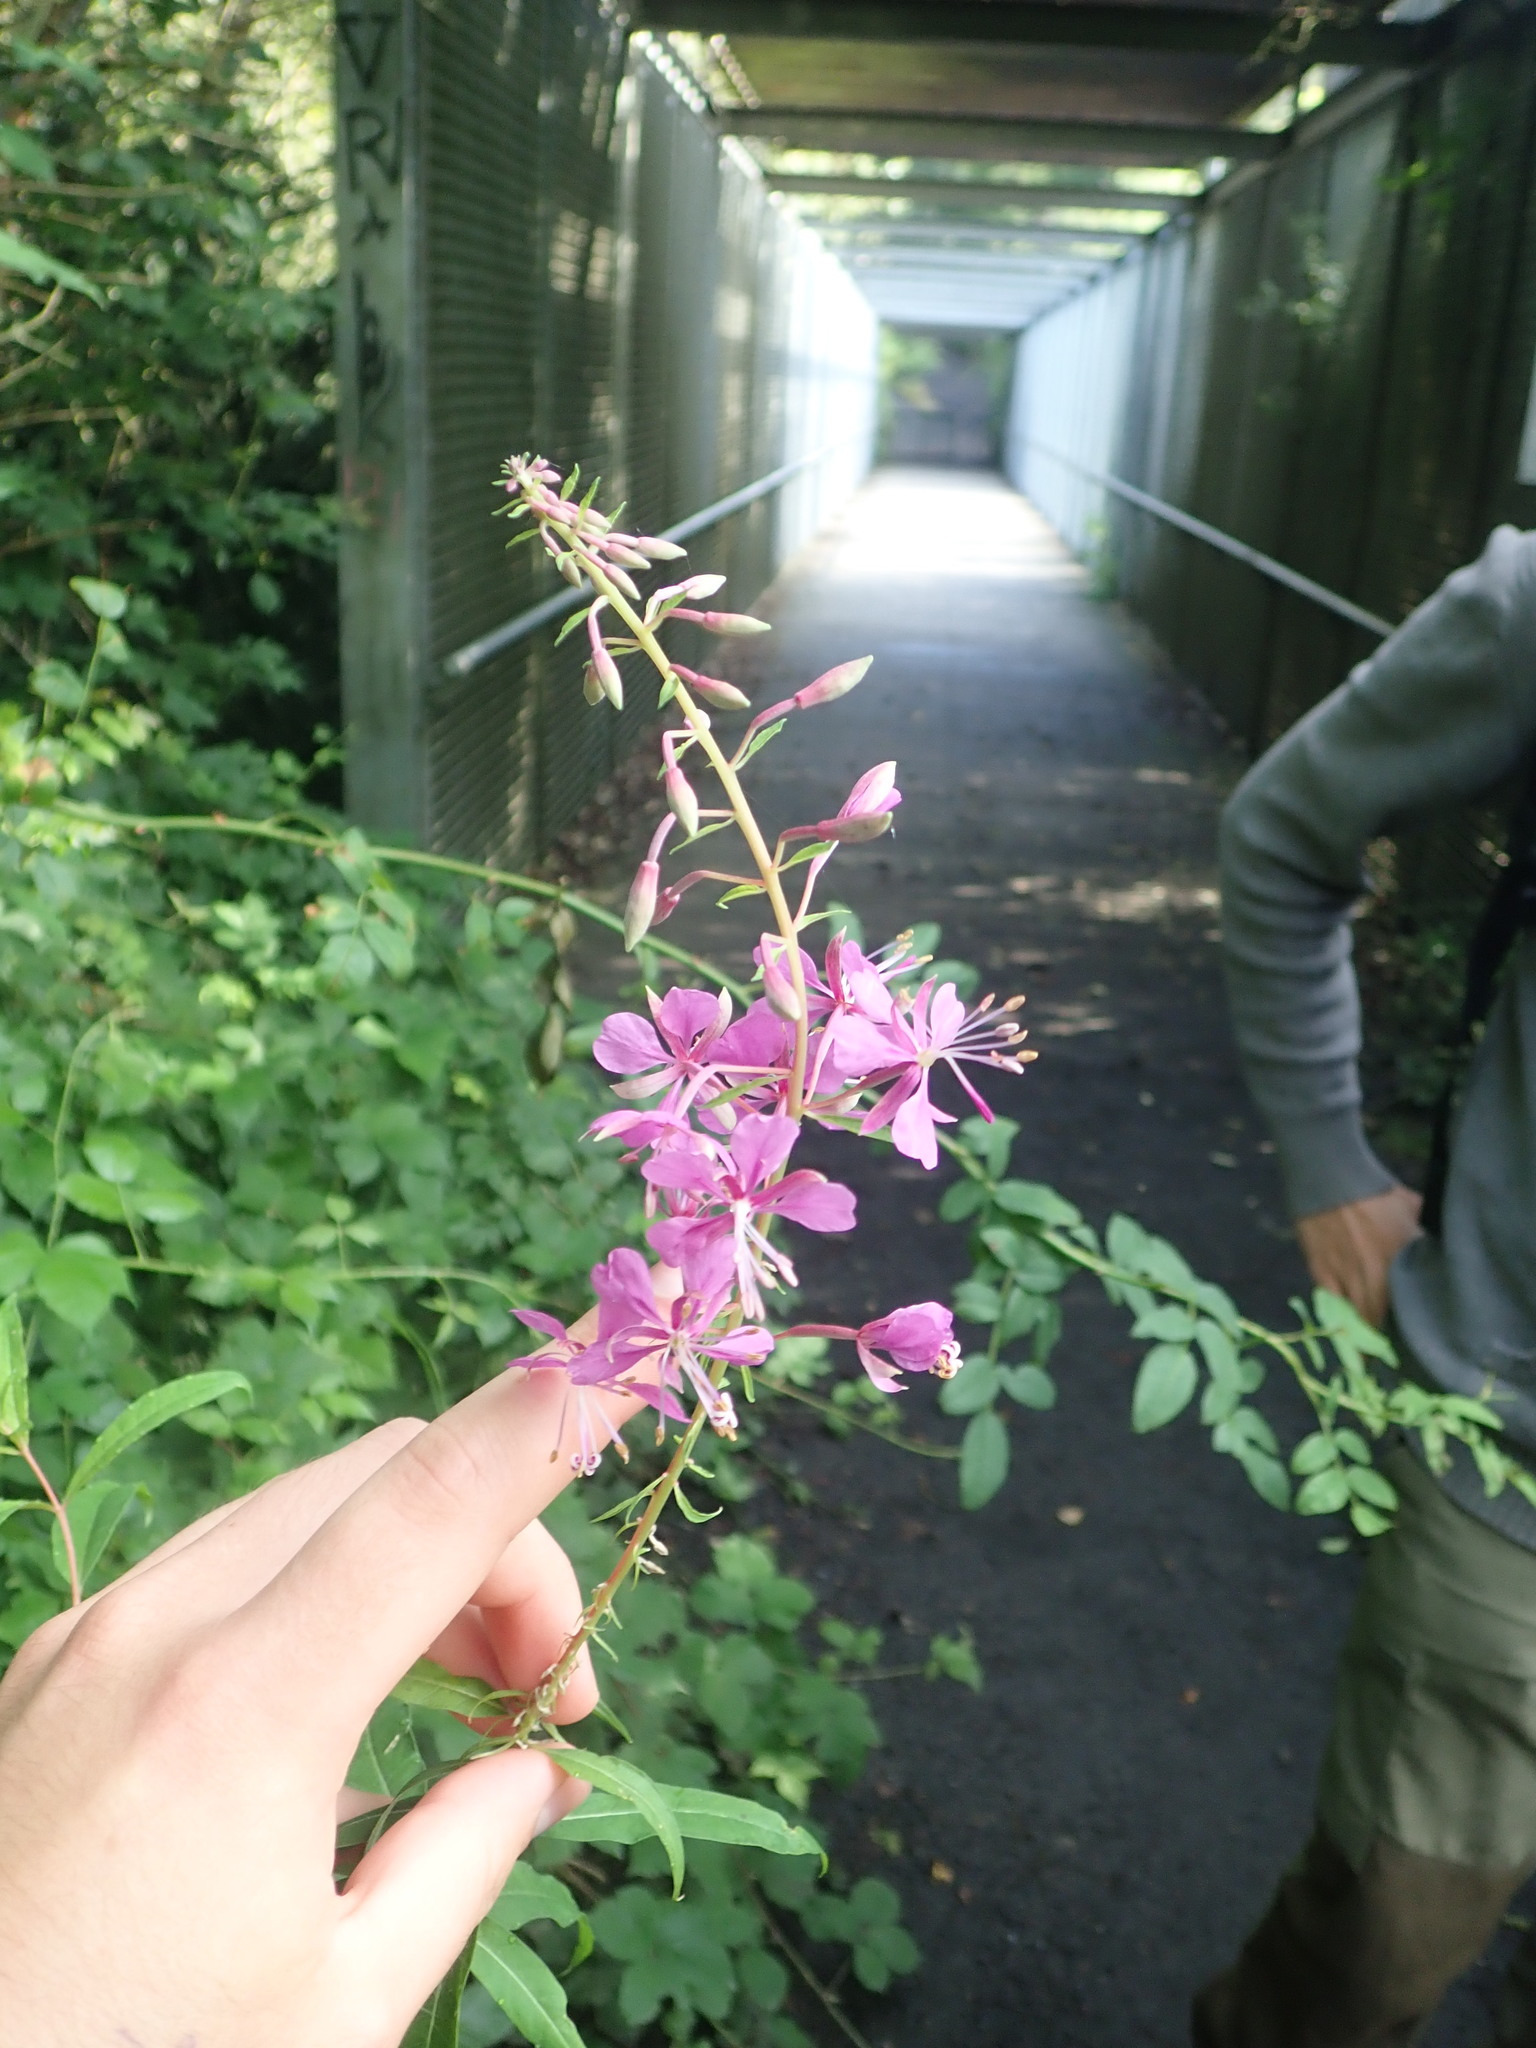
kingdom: Plantae
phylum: Tracheophyta
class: Magnoliopsida
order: Myrtales
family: Onagraceae
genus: Chamaenerion
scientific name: Chamaenerion angustifolium
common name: Fireweed
